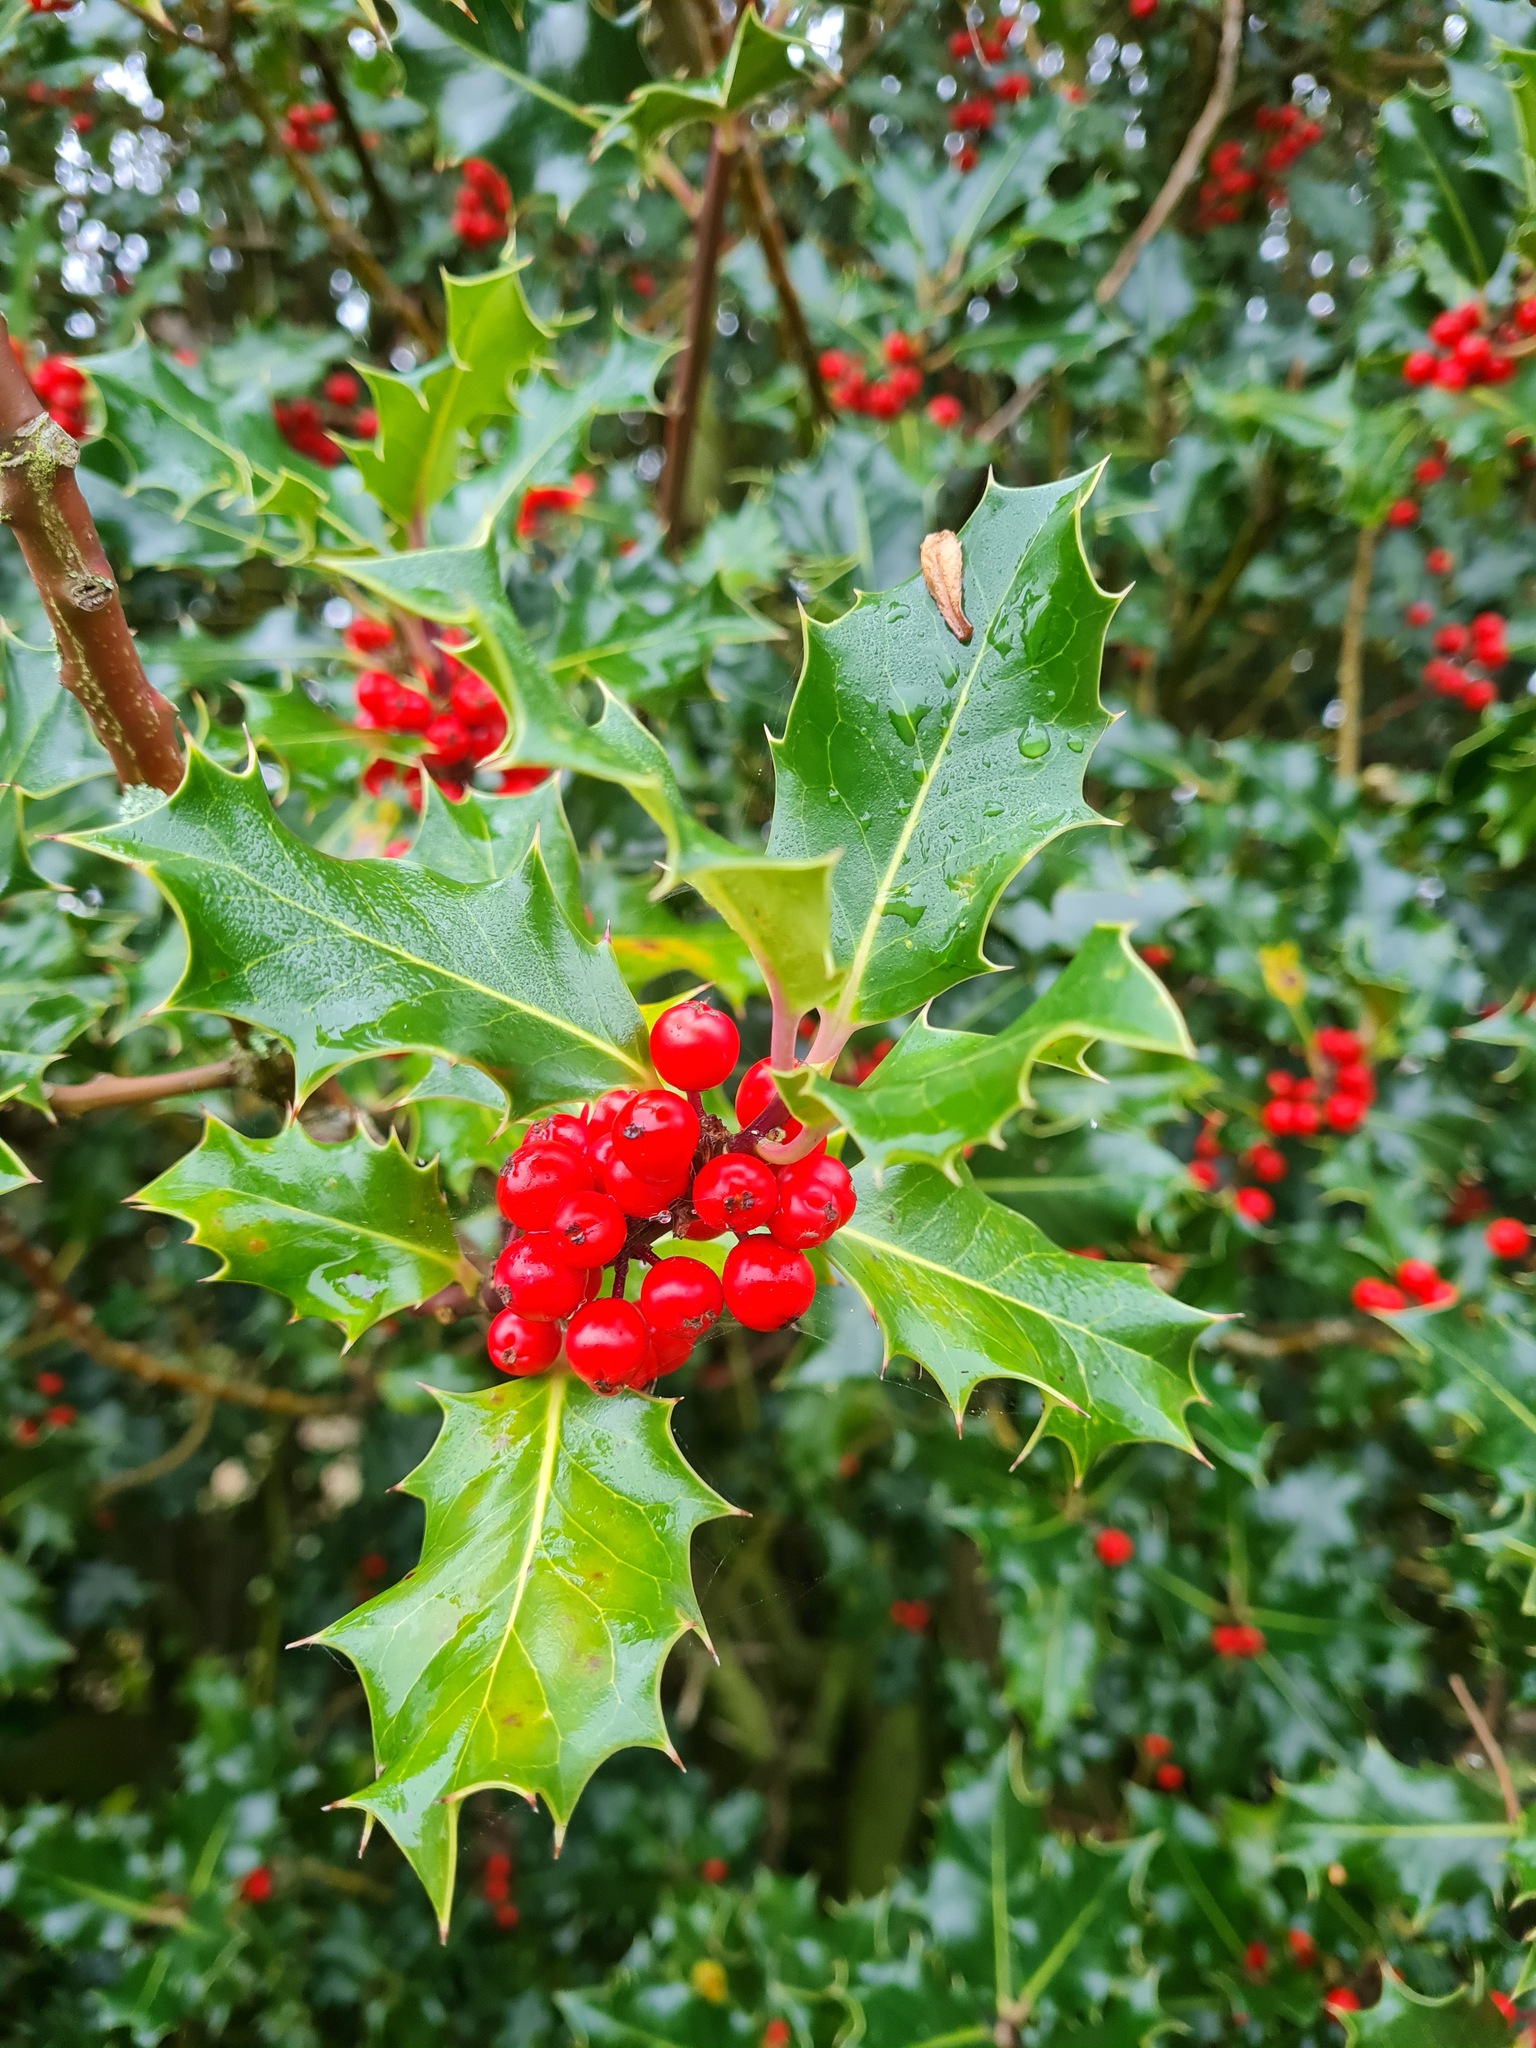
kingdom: Plantae
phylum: Tracheophyta
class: Magnoliopsida
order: Aquifoliales
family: Aquifoliaceae
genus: Ilex
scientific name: Ilex aquifolium
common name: English holly
